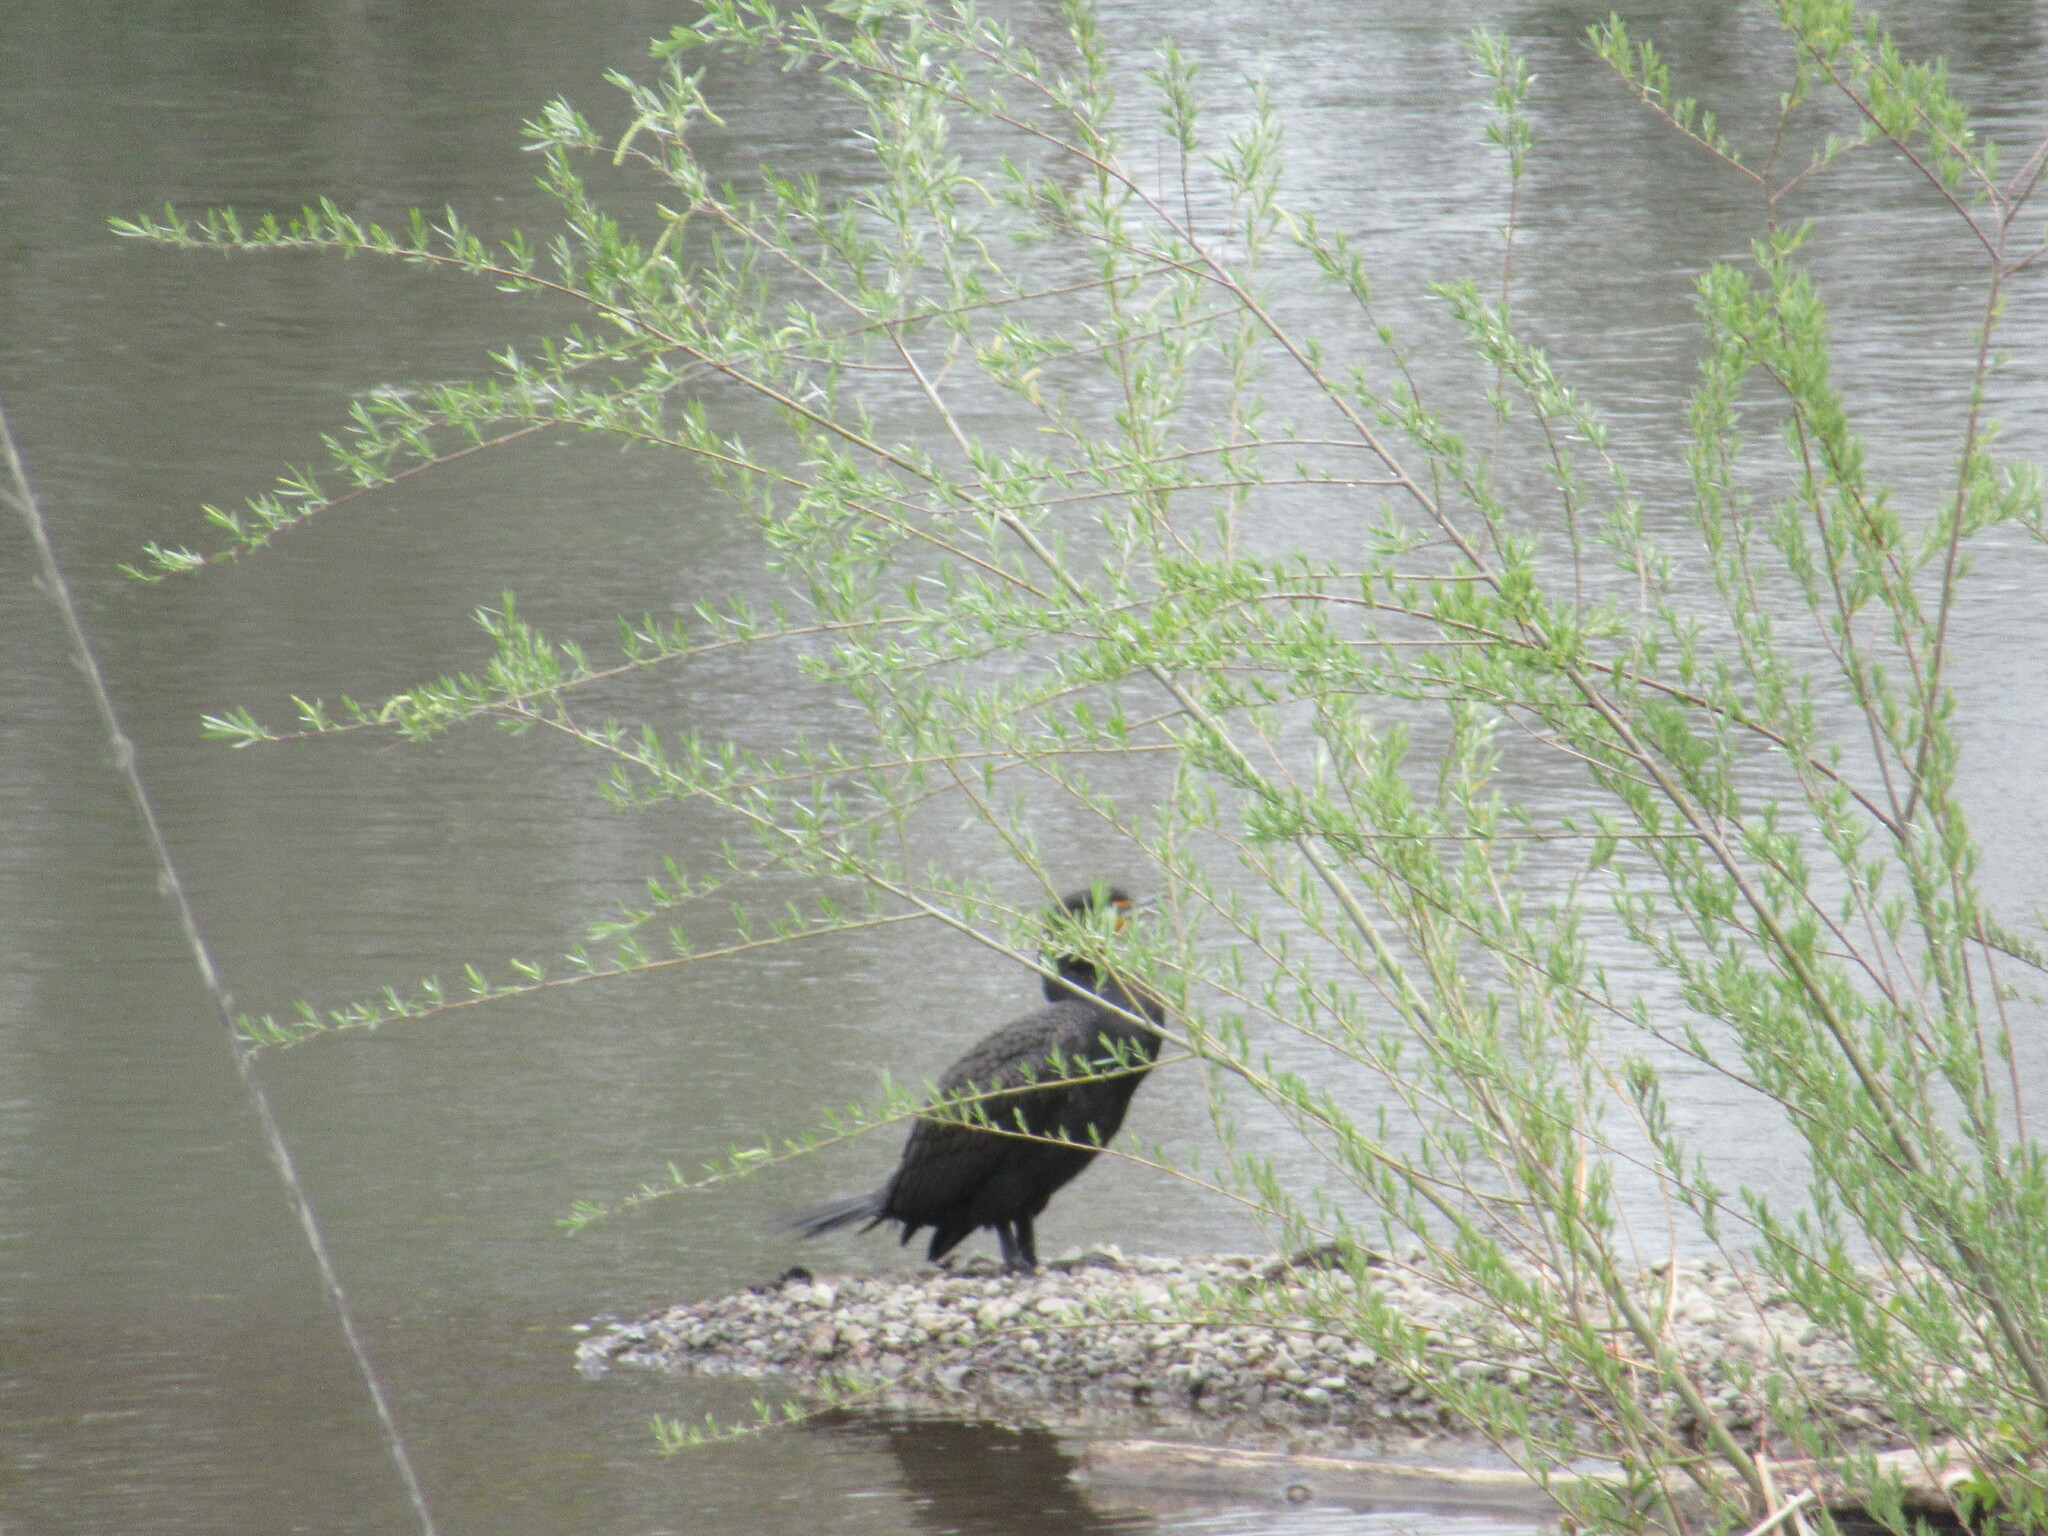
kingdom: Animalia
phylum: Chordata
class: Aves
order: Suliformes
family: Phalacrocoracidae
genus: Phalacrocorax
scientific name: Phalacrocorax auritus
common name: Double-crested cormorant
